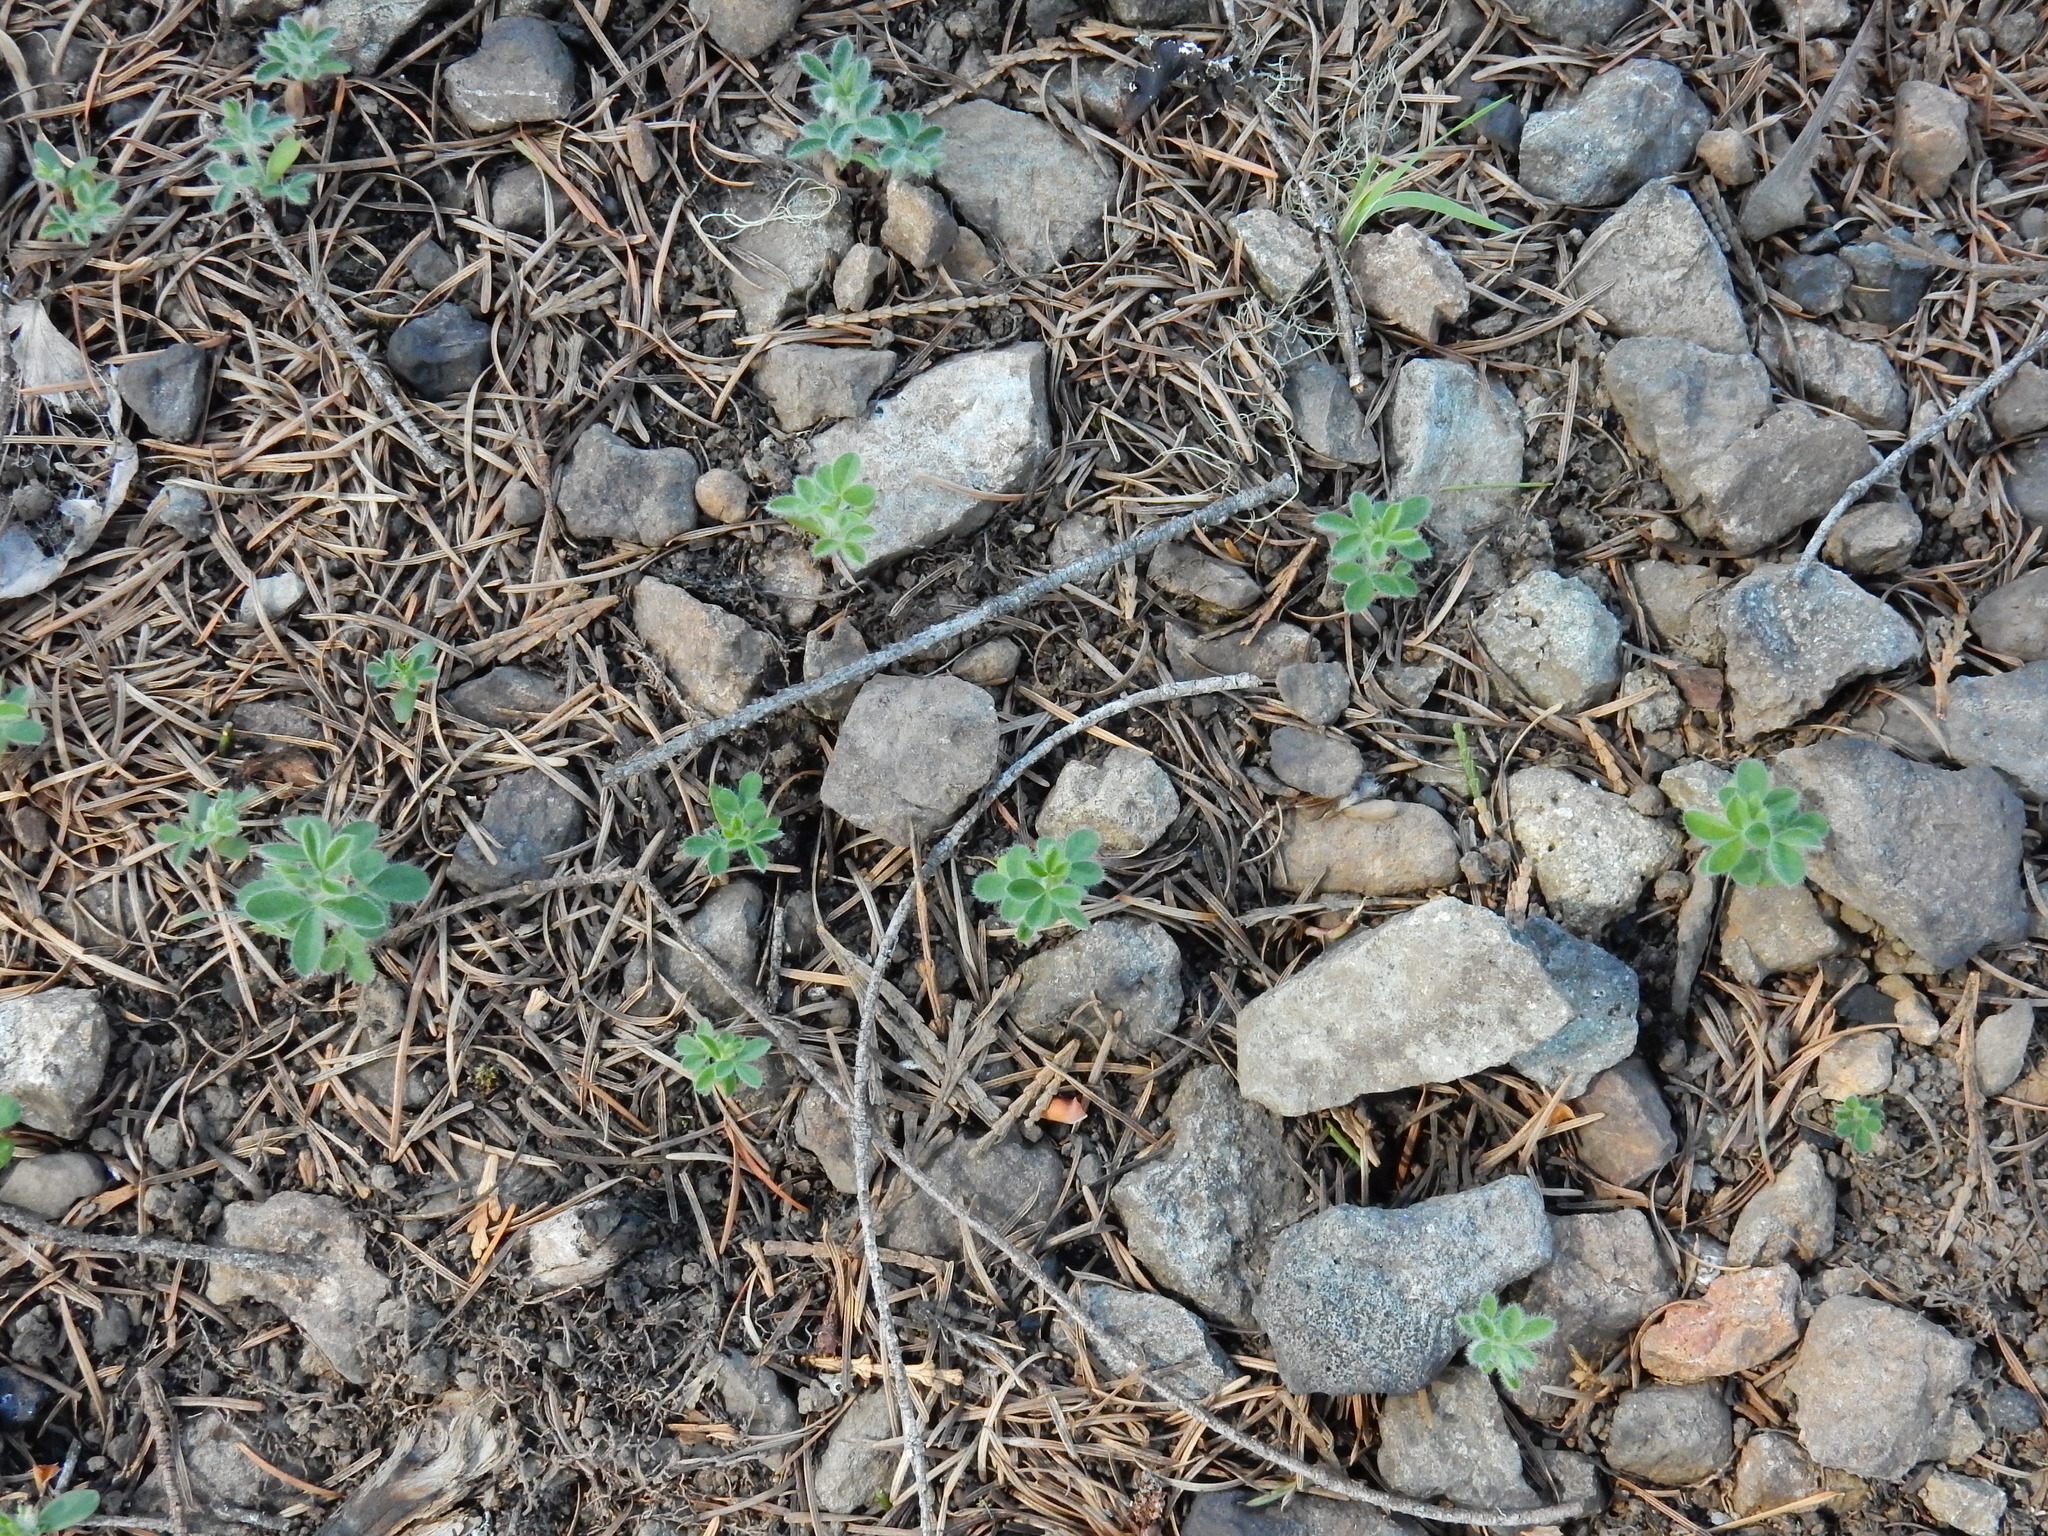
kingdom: Plantae
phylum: Tracheophyta
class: Magnoliopsida
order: Fabales
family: Fabaceae
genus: Cytisus
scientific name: Cytisus scoparius
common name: Scotch broom
